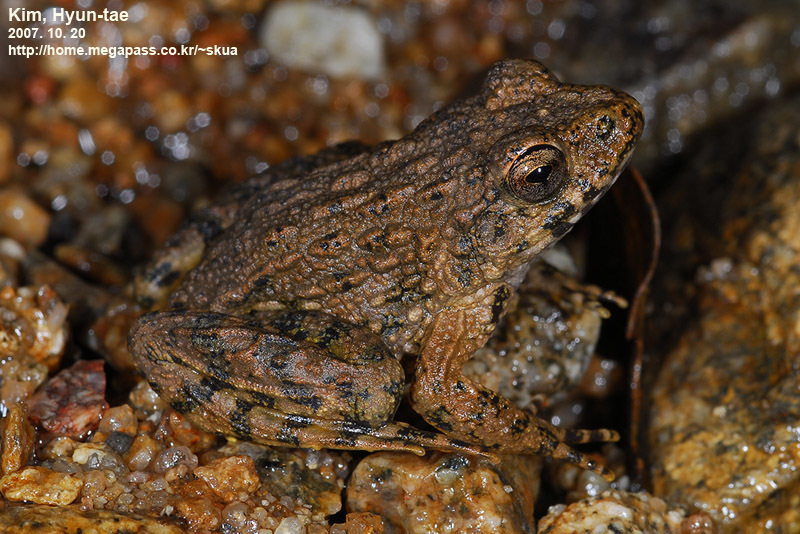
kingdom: Animalia
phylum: Chordata
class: Amphibia
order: Anura
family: Ranidae
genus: Glandirana
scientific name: Glandirana emeljanovi
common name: Northeast china rough-skinned frog
